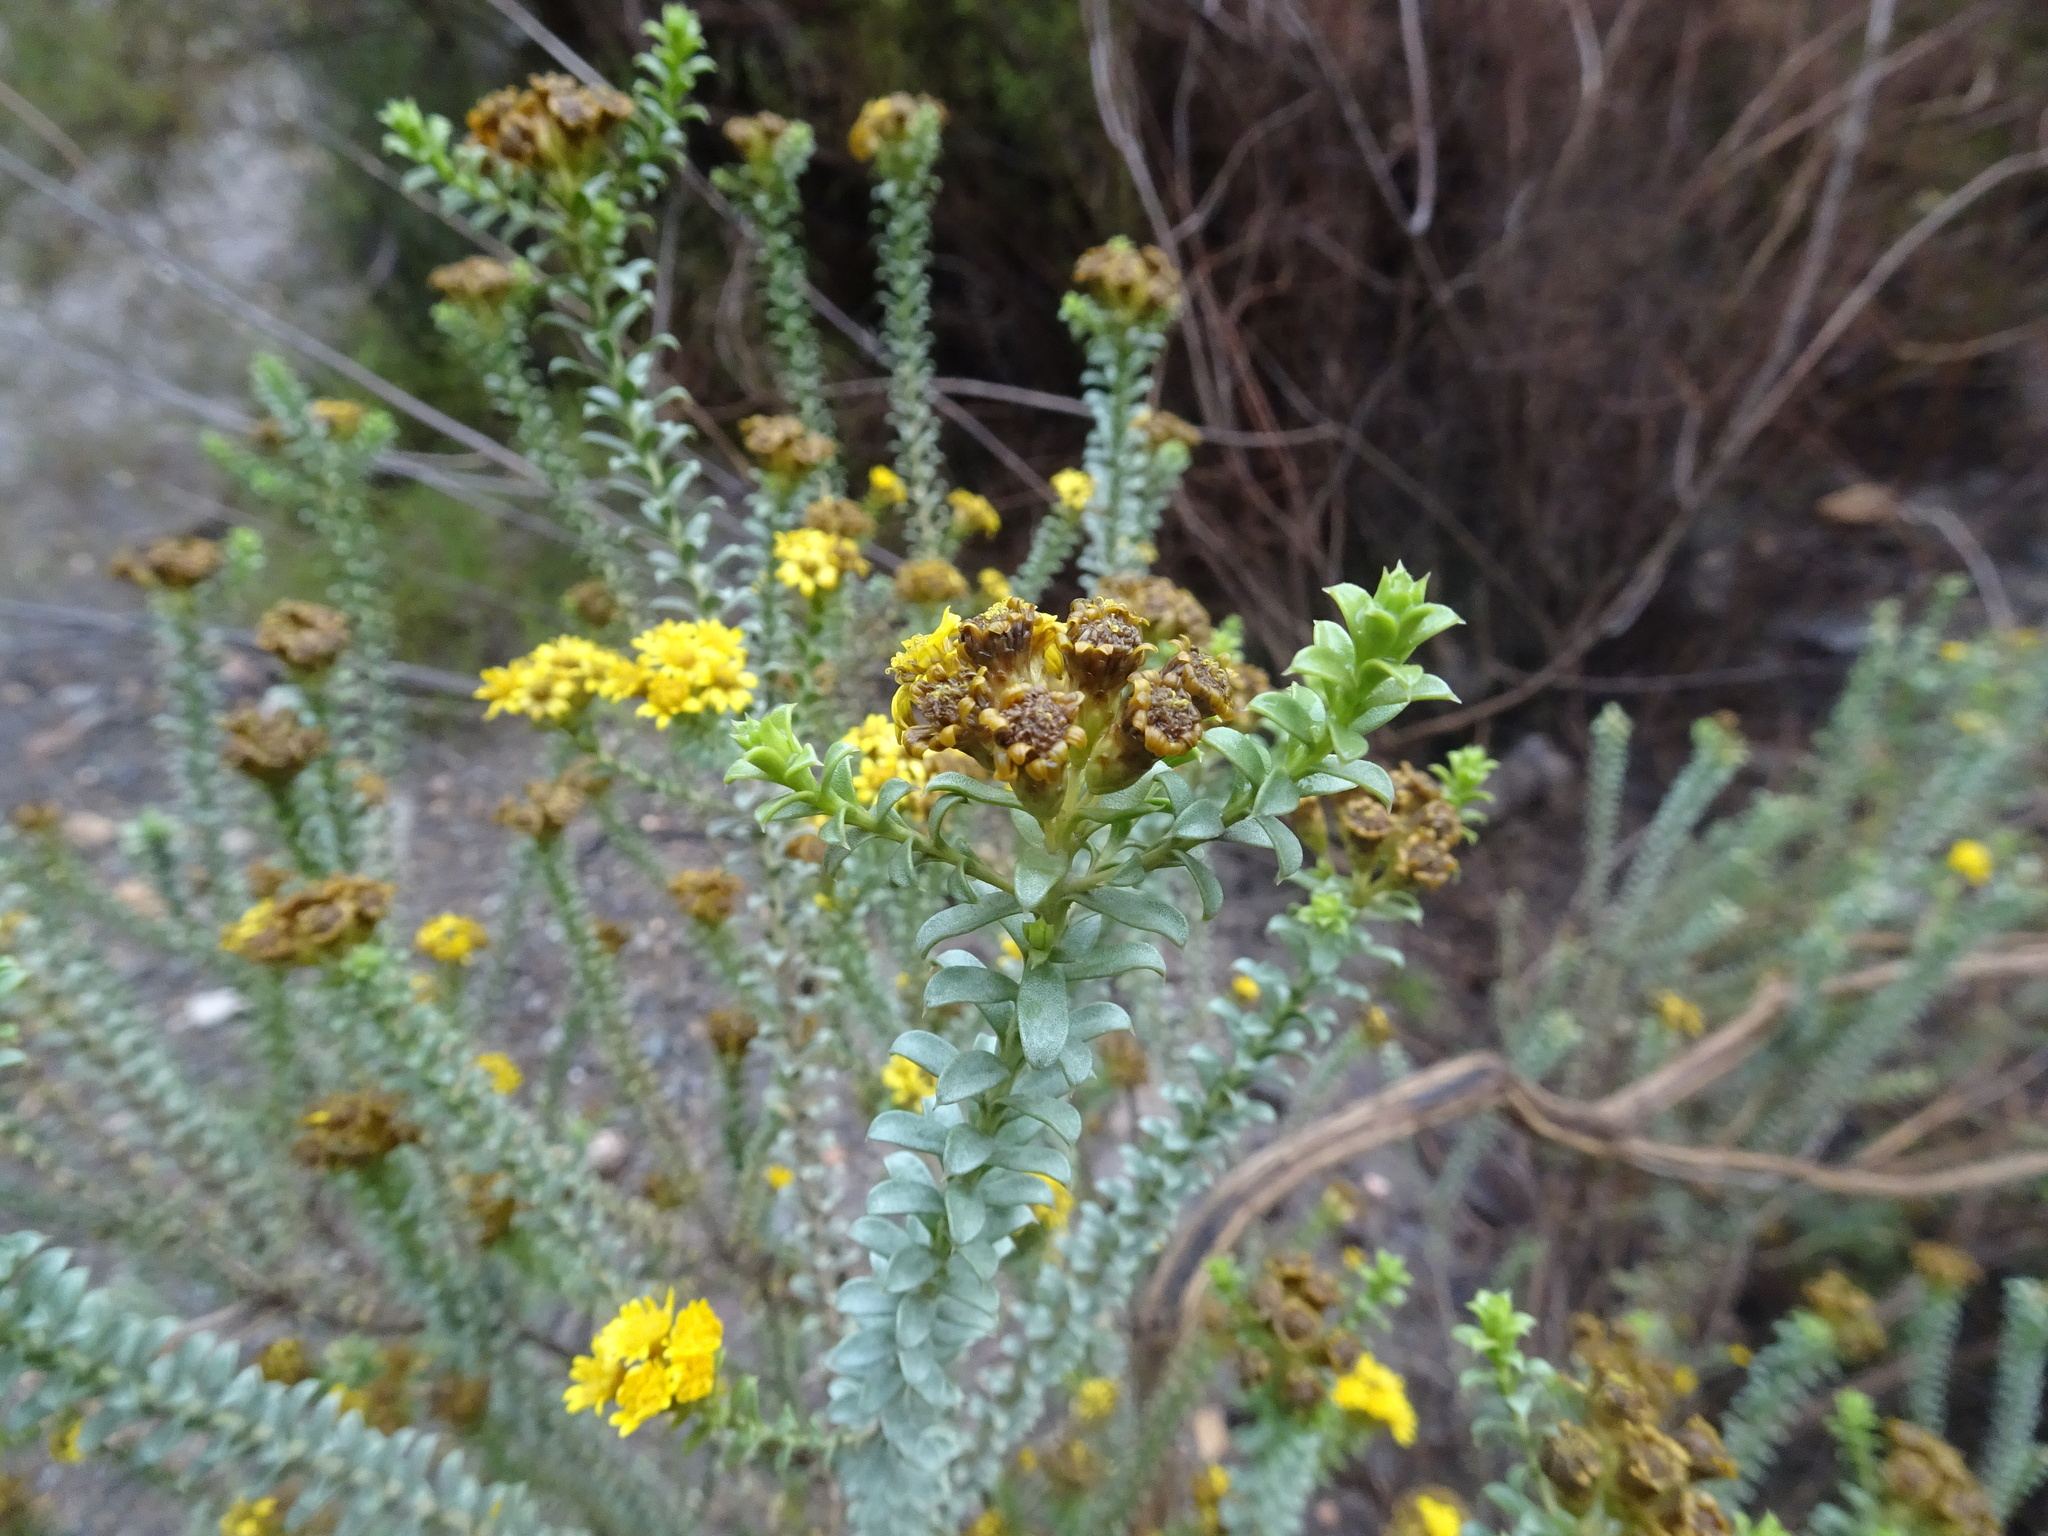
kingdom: Plantae
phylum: Tracheophyta
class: Magnoliopsida
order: Asterales
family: Asteraceae
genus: Oedera
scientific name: Oedera squarrosa
